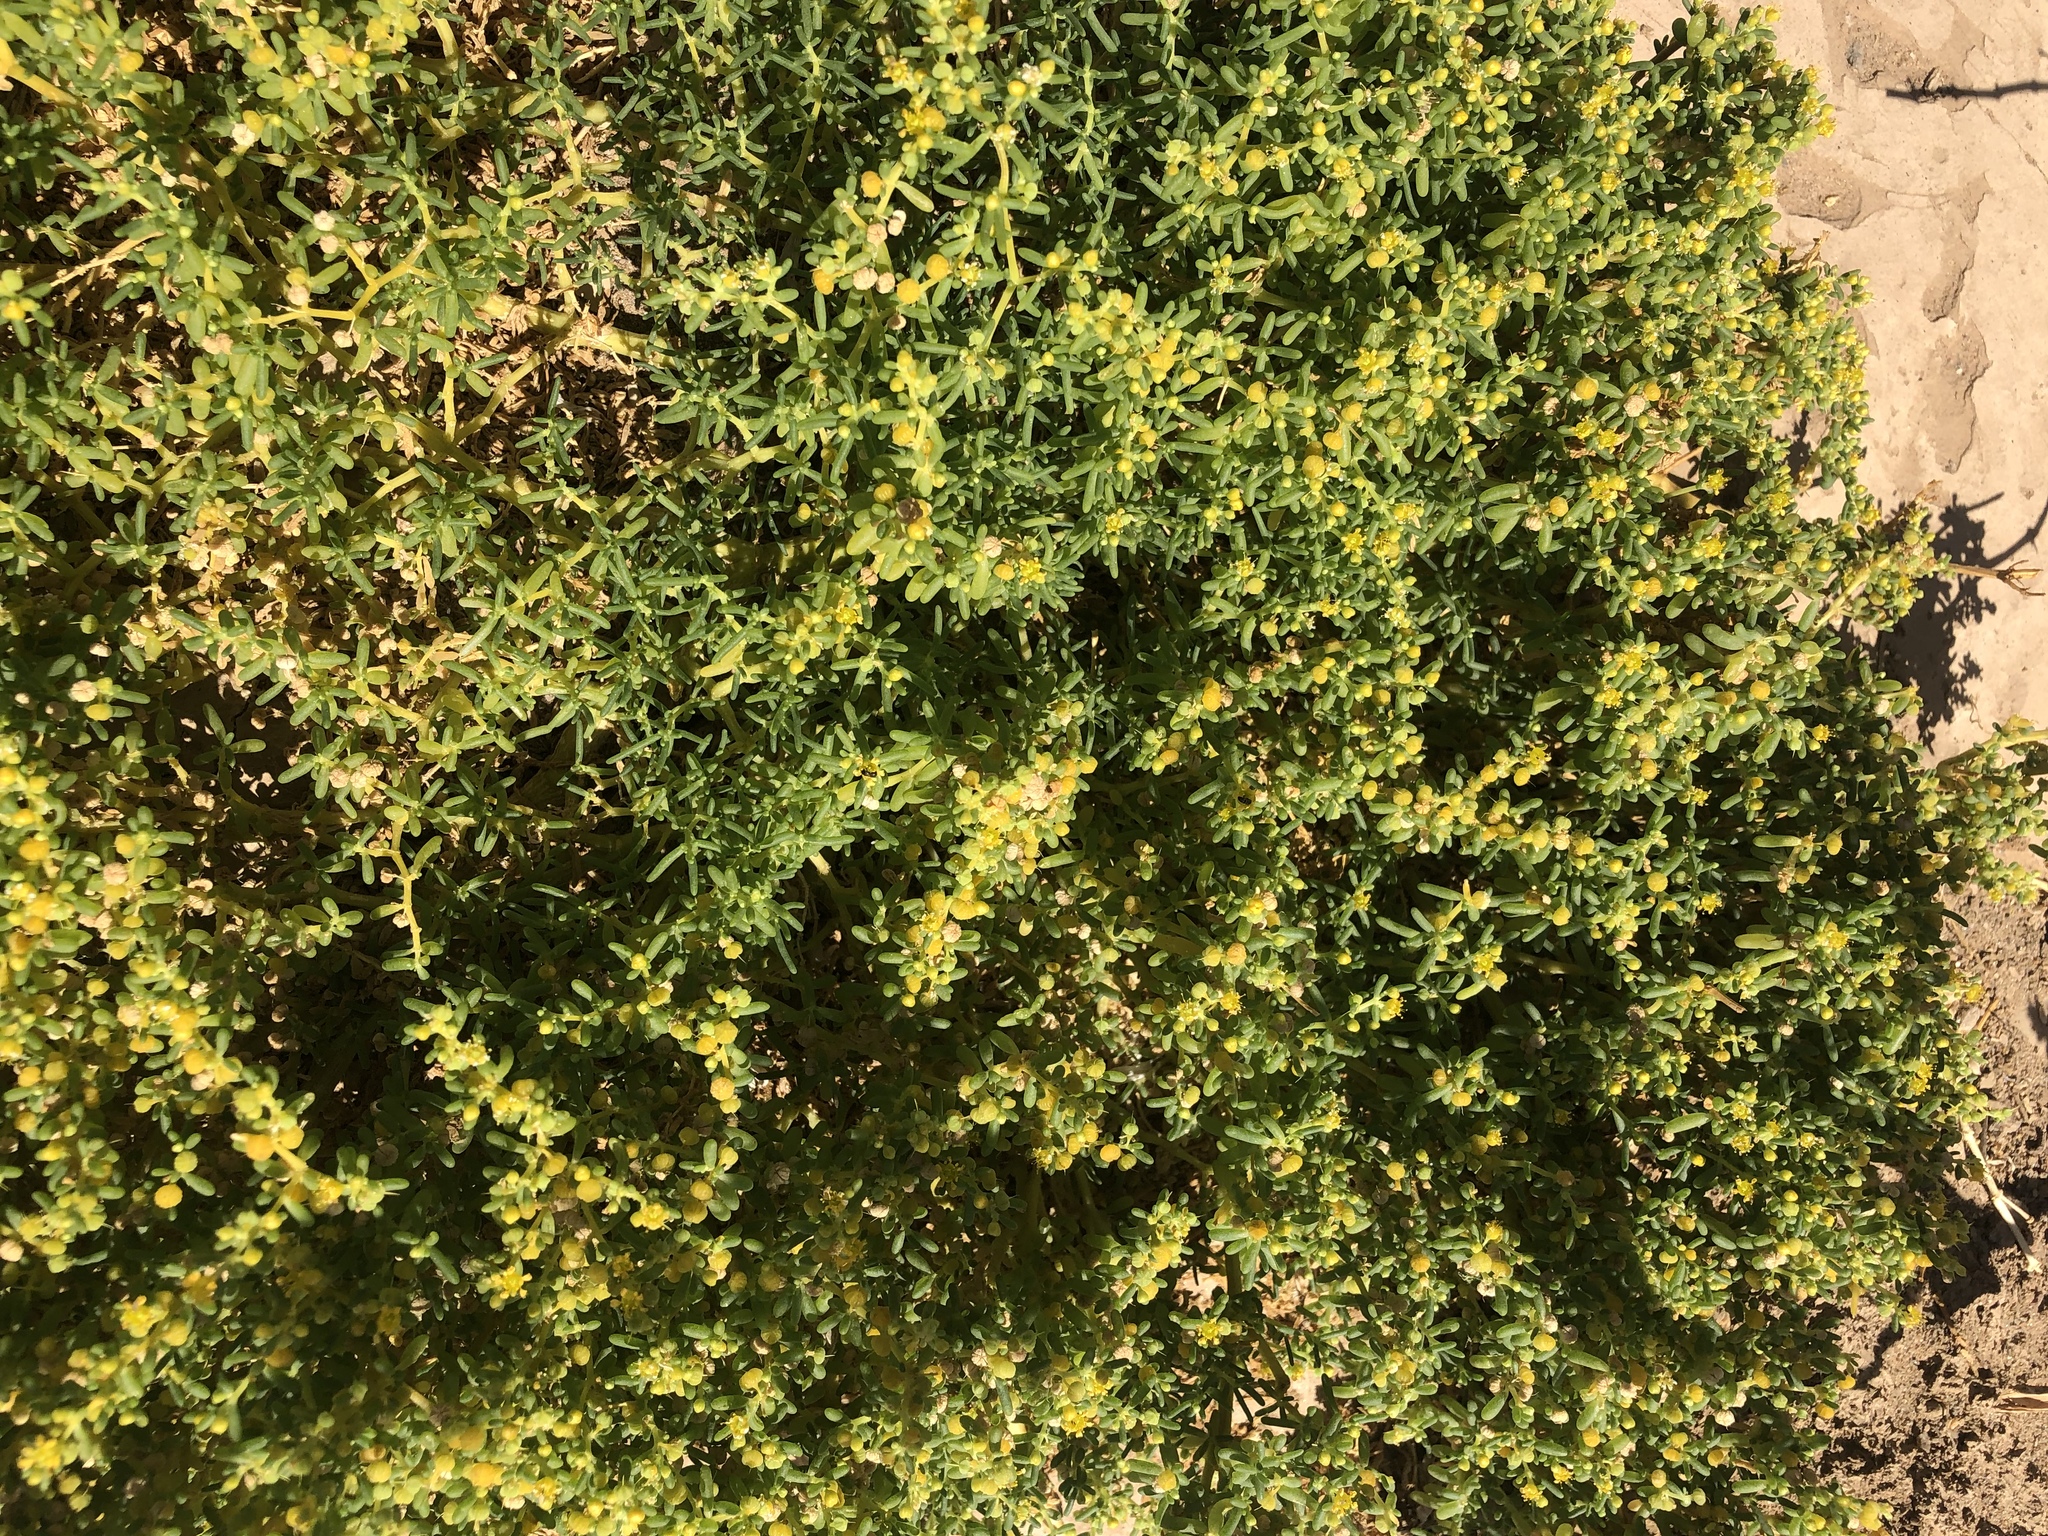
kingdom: Plantae
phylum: Tracheophyta
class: Magnoliopsida
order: Zygophyllales
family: Zygophyllaceae
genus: Tetraena
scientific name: Tetraena simplex
